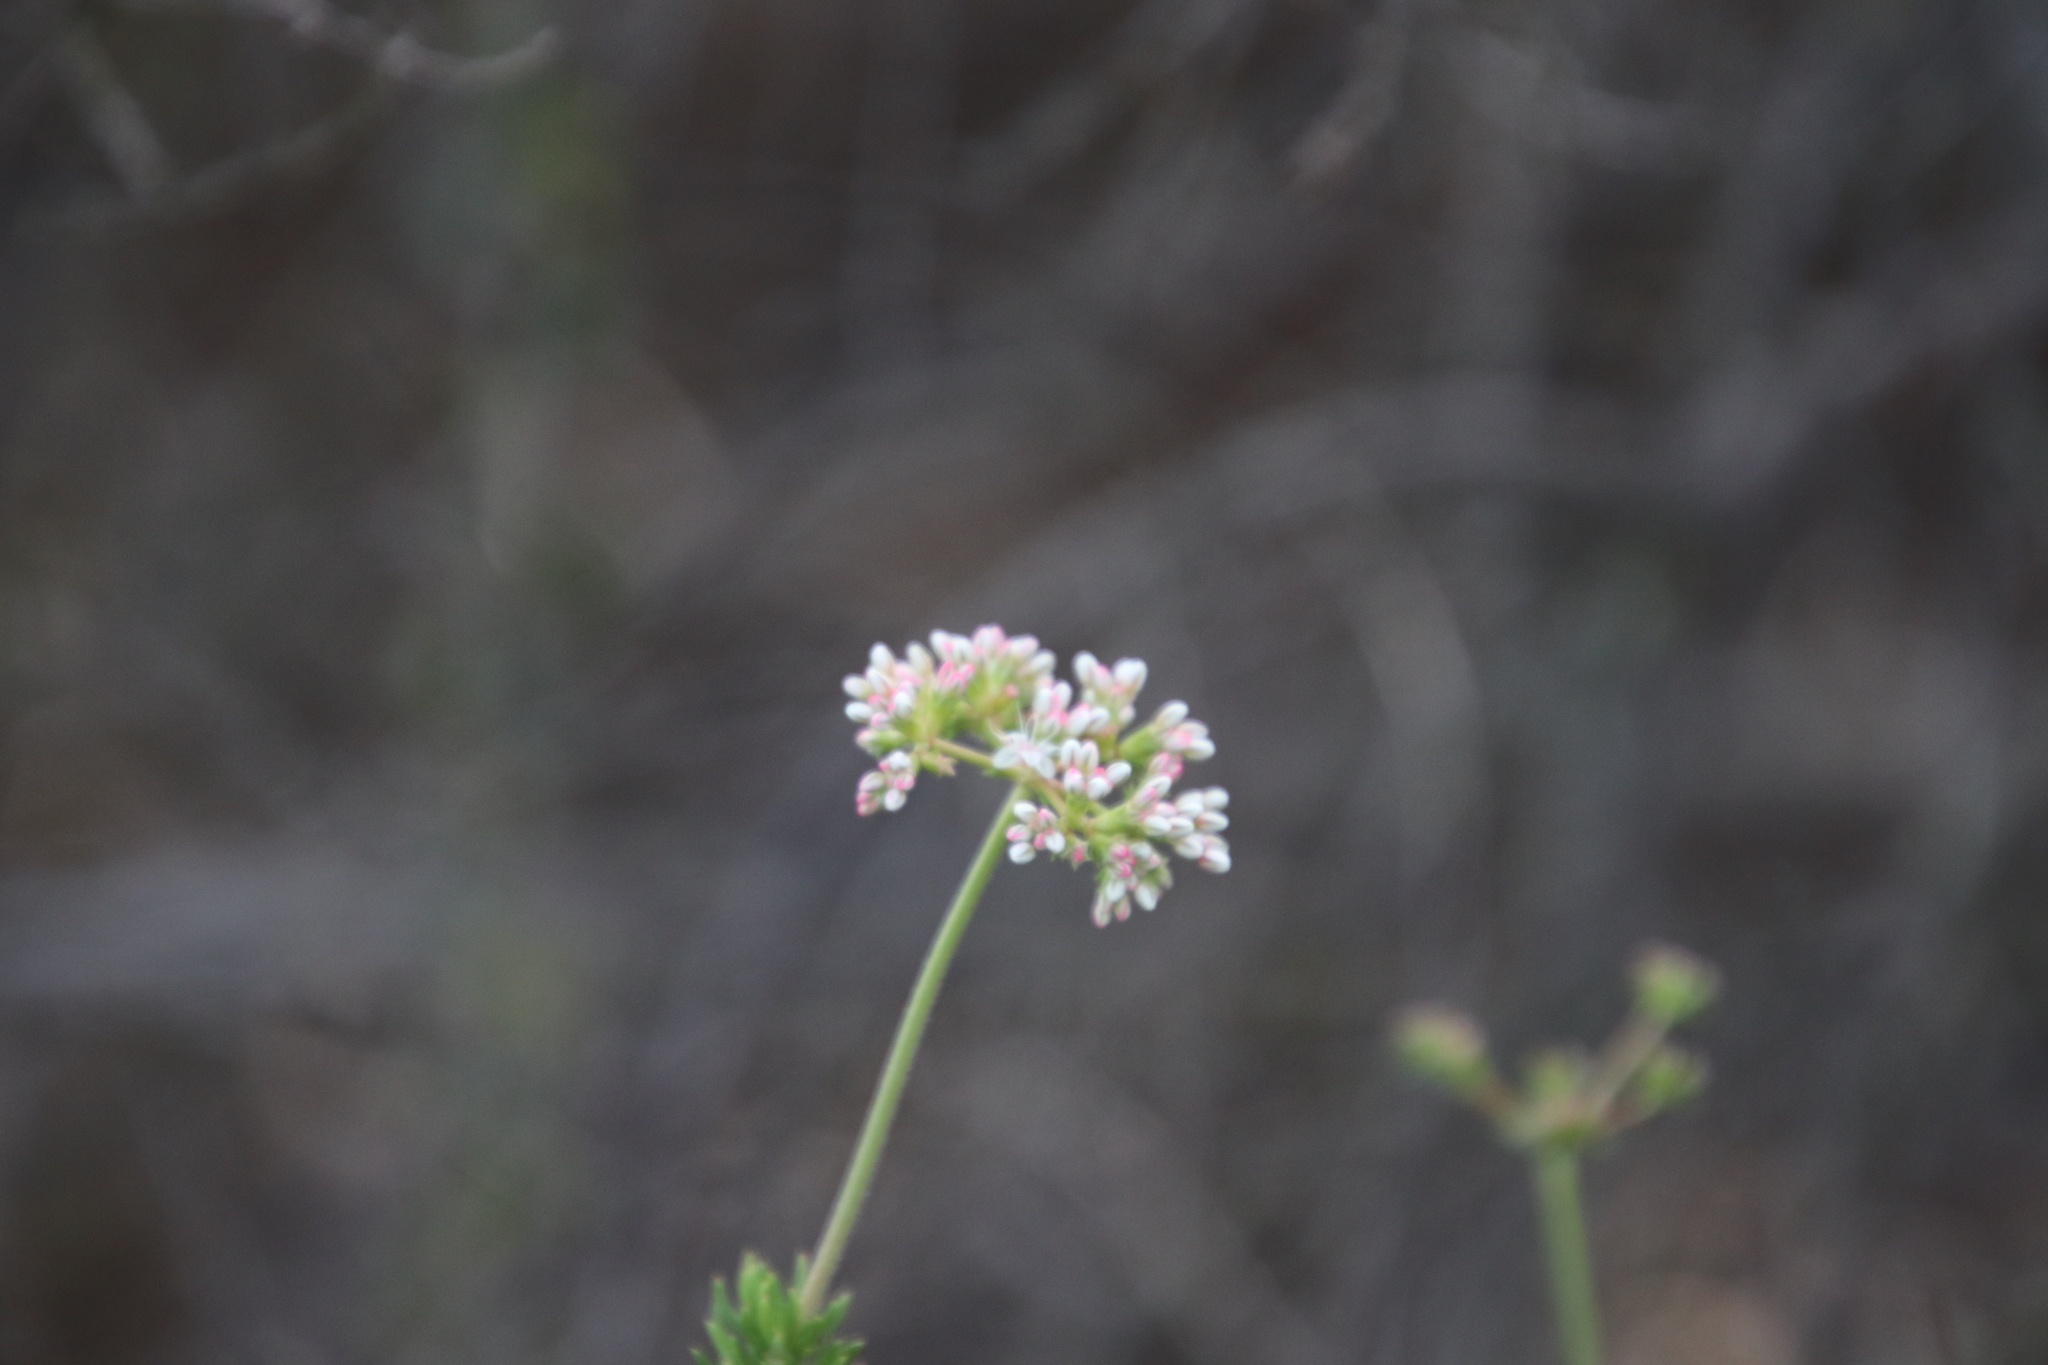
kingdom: Plantae
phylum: Tracheophyta
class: Magnoliopsida
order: Caryophyllales
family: Polygonaceae
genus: Eriogonum
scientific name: Eriogonum fasciculatum
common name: California wild buckwheat
